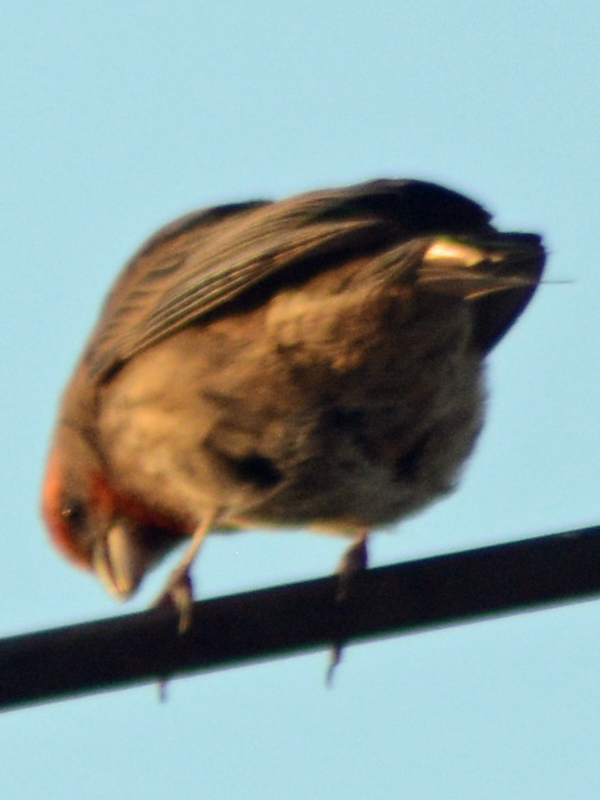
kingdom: Animalia
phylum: Chordata
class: Aves
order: Passeriformes
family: Fringillidae
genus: Haemorhous
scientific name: Haemorhous mexicanus
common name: House finch
